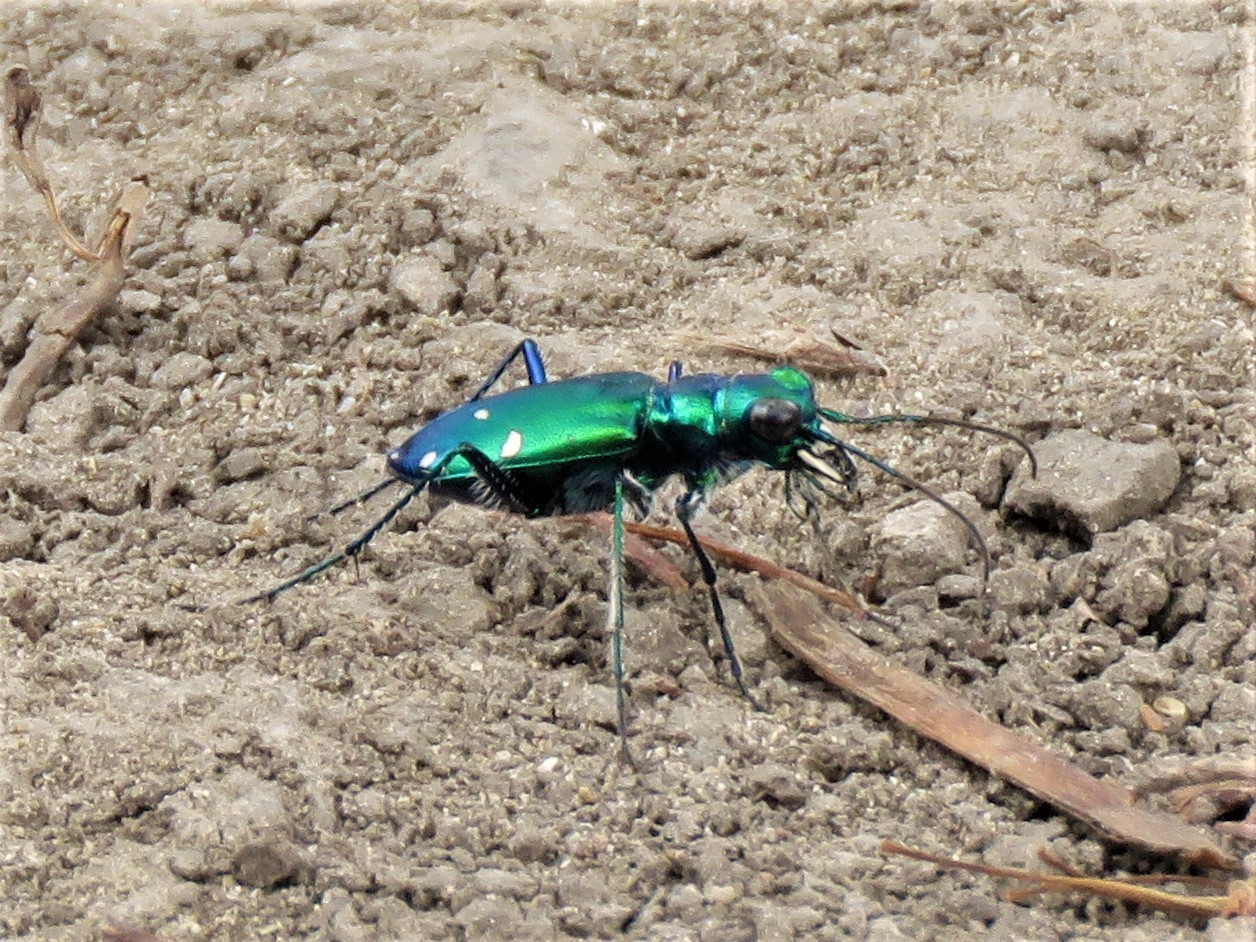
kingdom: Animalia
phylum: Arthropoda
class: Insecta
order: Coleoptera
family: Carabidae
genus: Cicindela
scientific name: Cicindela sexguttata
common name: Six-spotted tiger beetle
